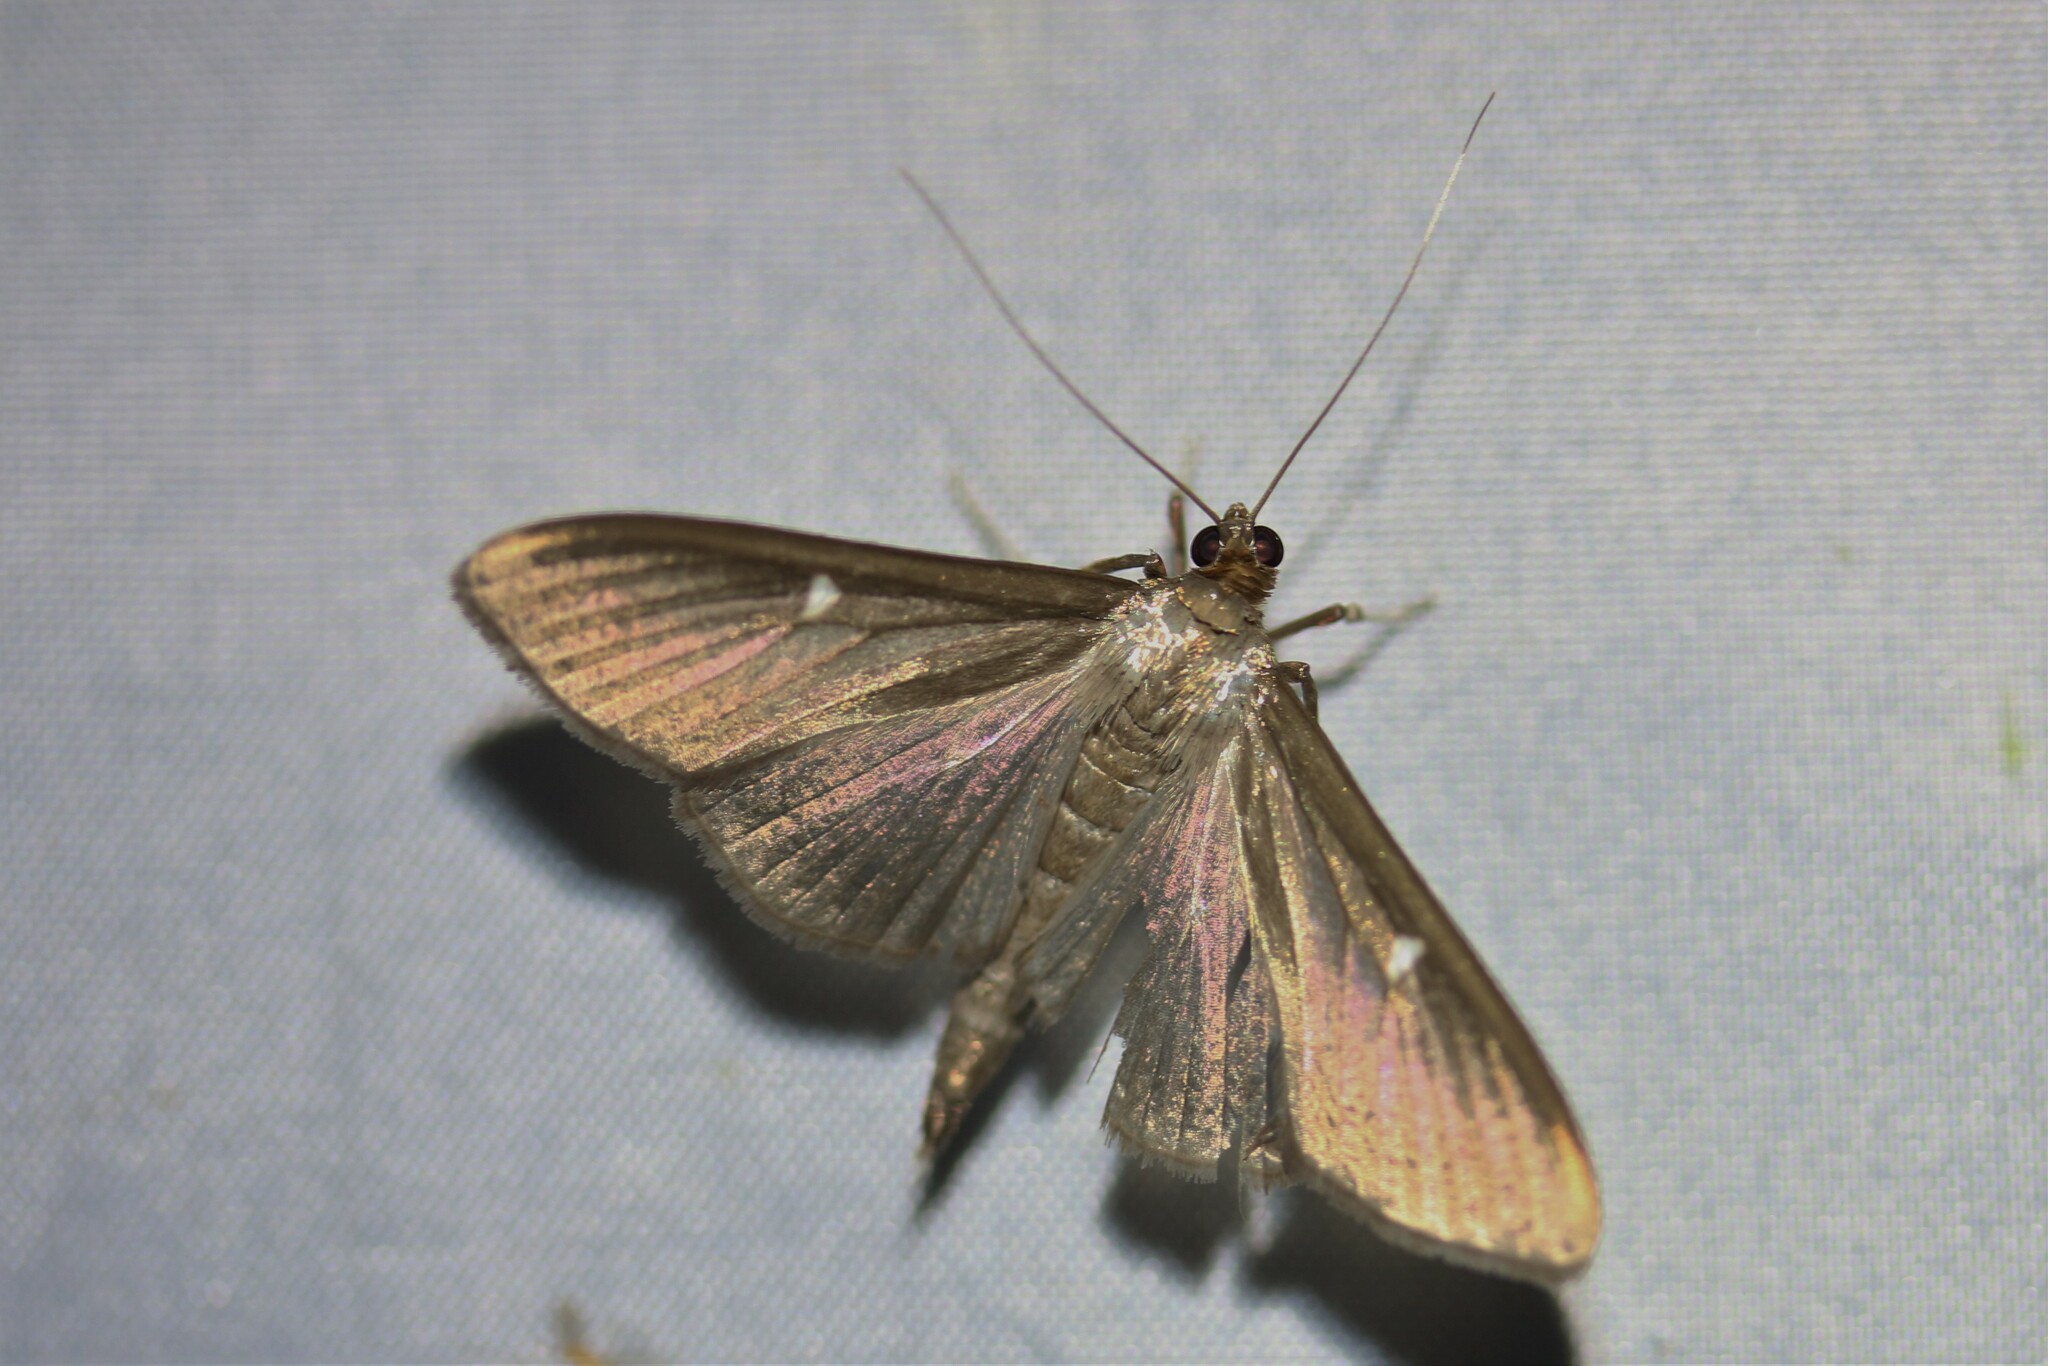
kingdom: Animalia
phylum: Arthropoda
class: Insecta
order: Lepidoptera
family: Crambidae
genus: Cydalima
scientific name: Cydalima perspectalis
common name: Box tree moth
